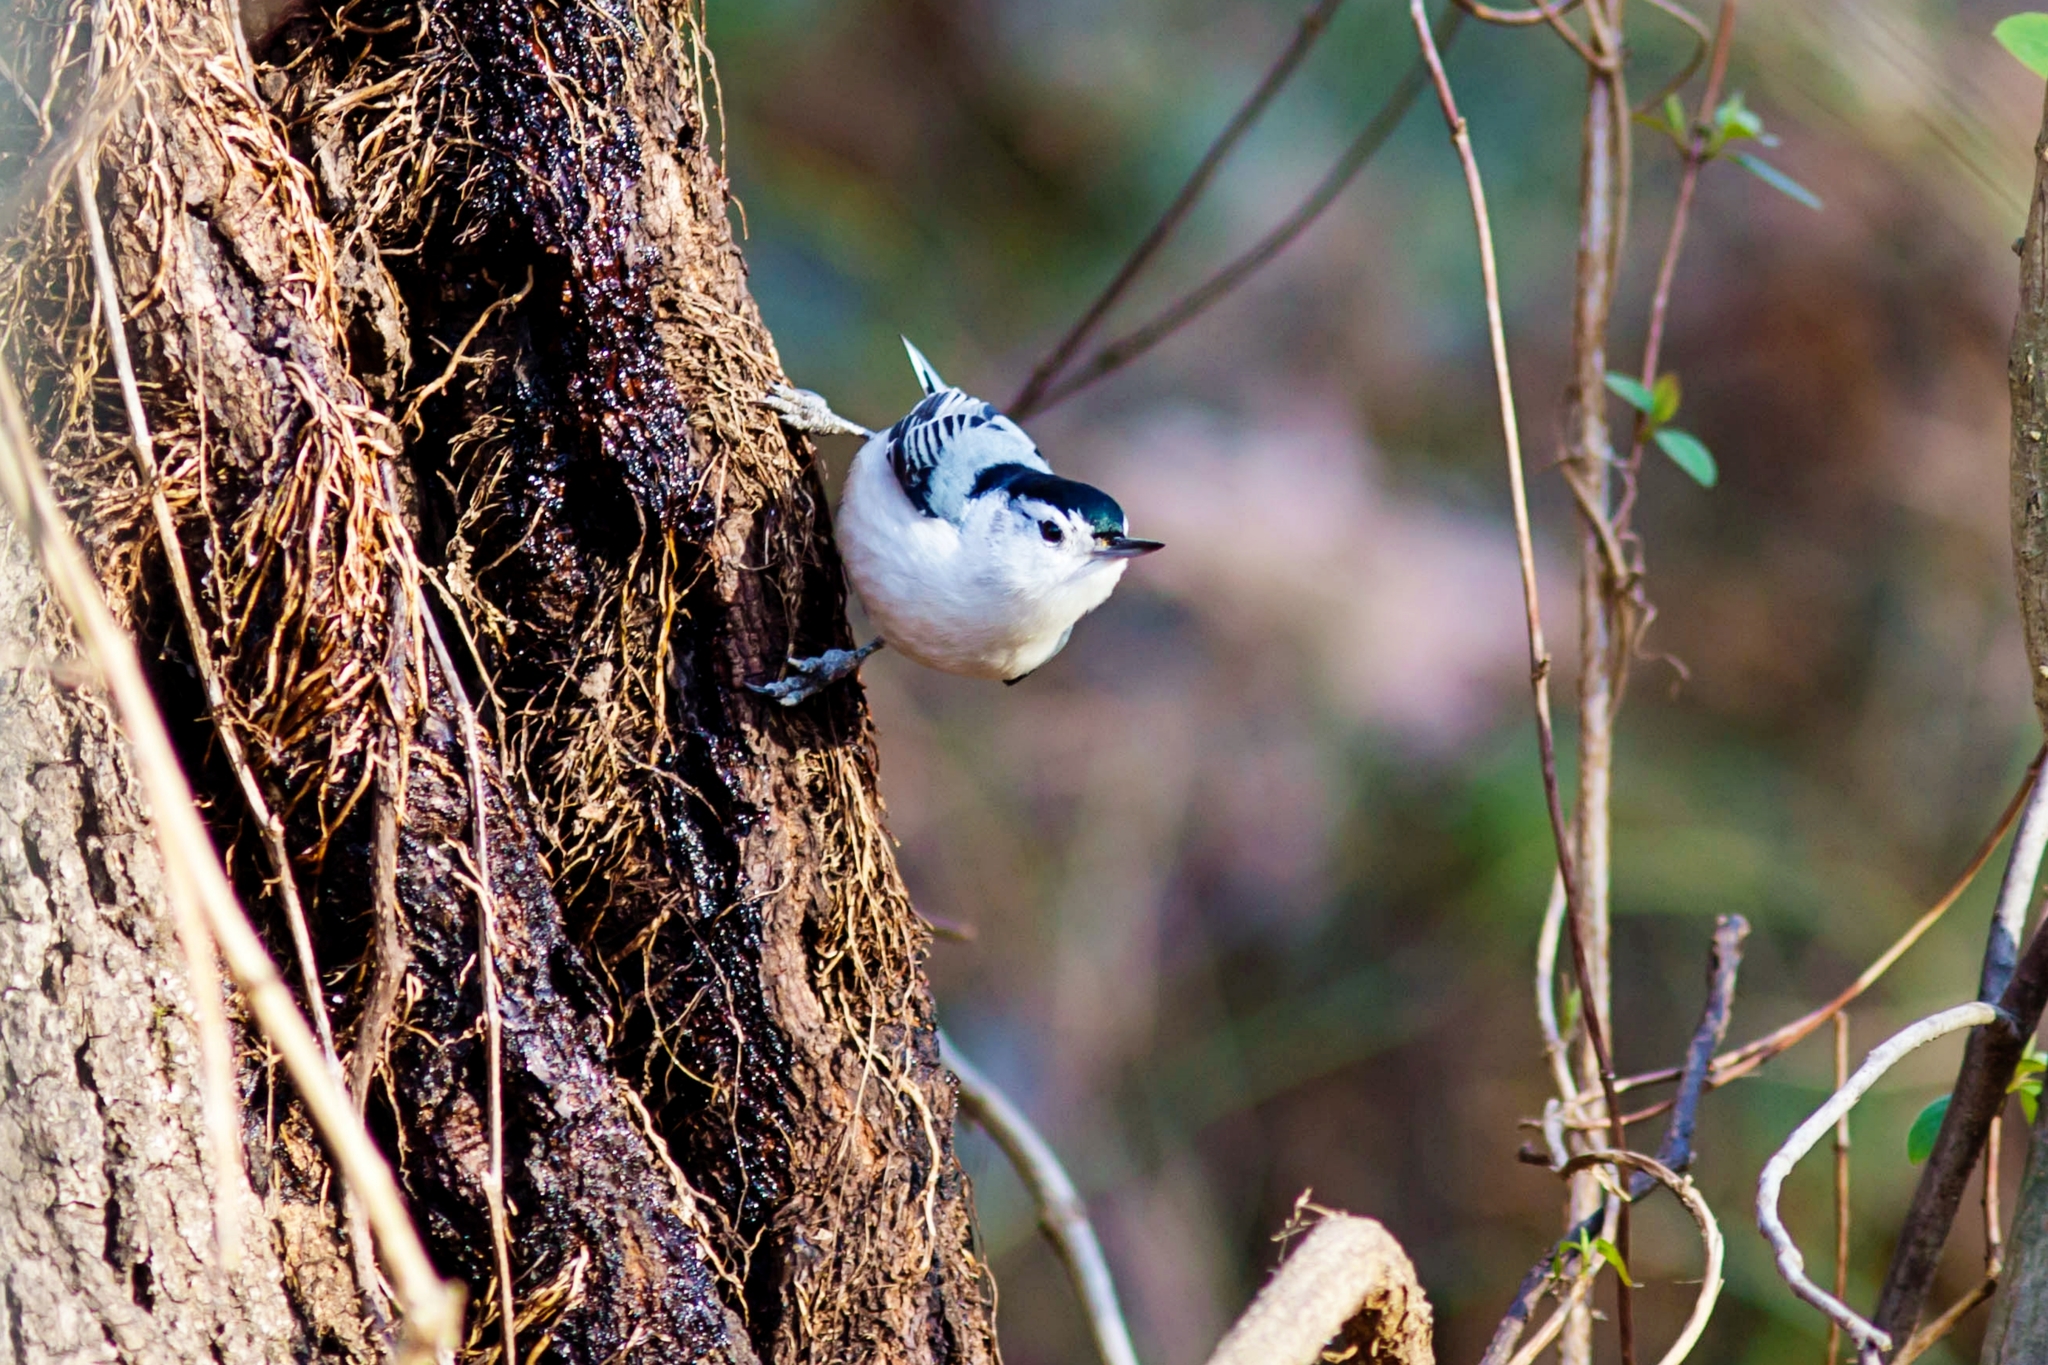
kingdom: Animalia
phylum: Chordata
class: Aves
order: Passeriformes
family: Sittidae
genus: Sitta
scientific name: Sitta carolinensis
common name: White-breasted nuthatch
